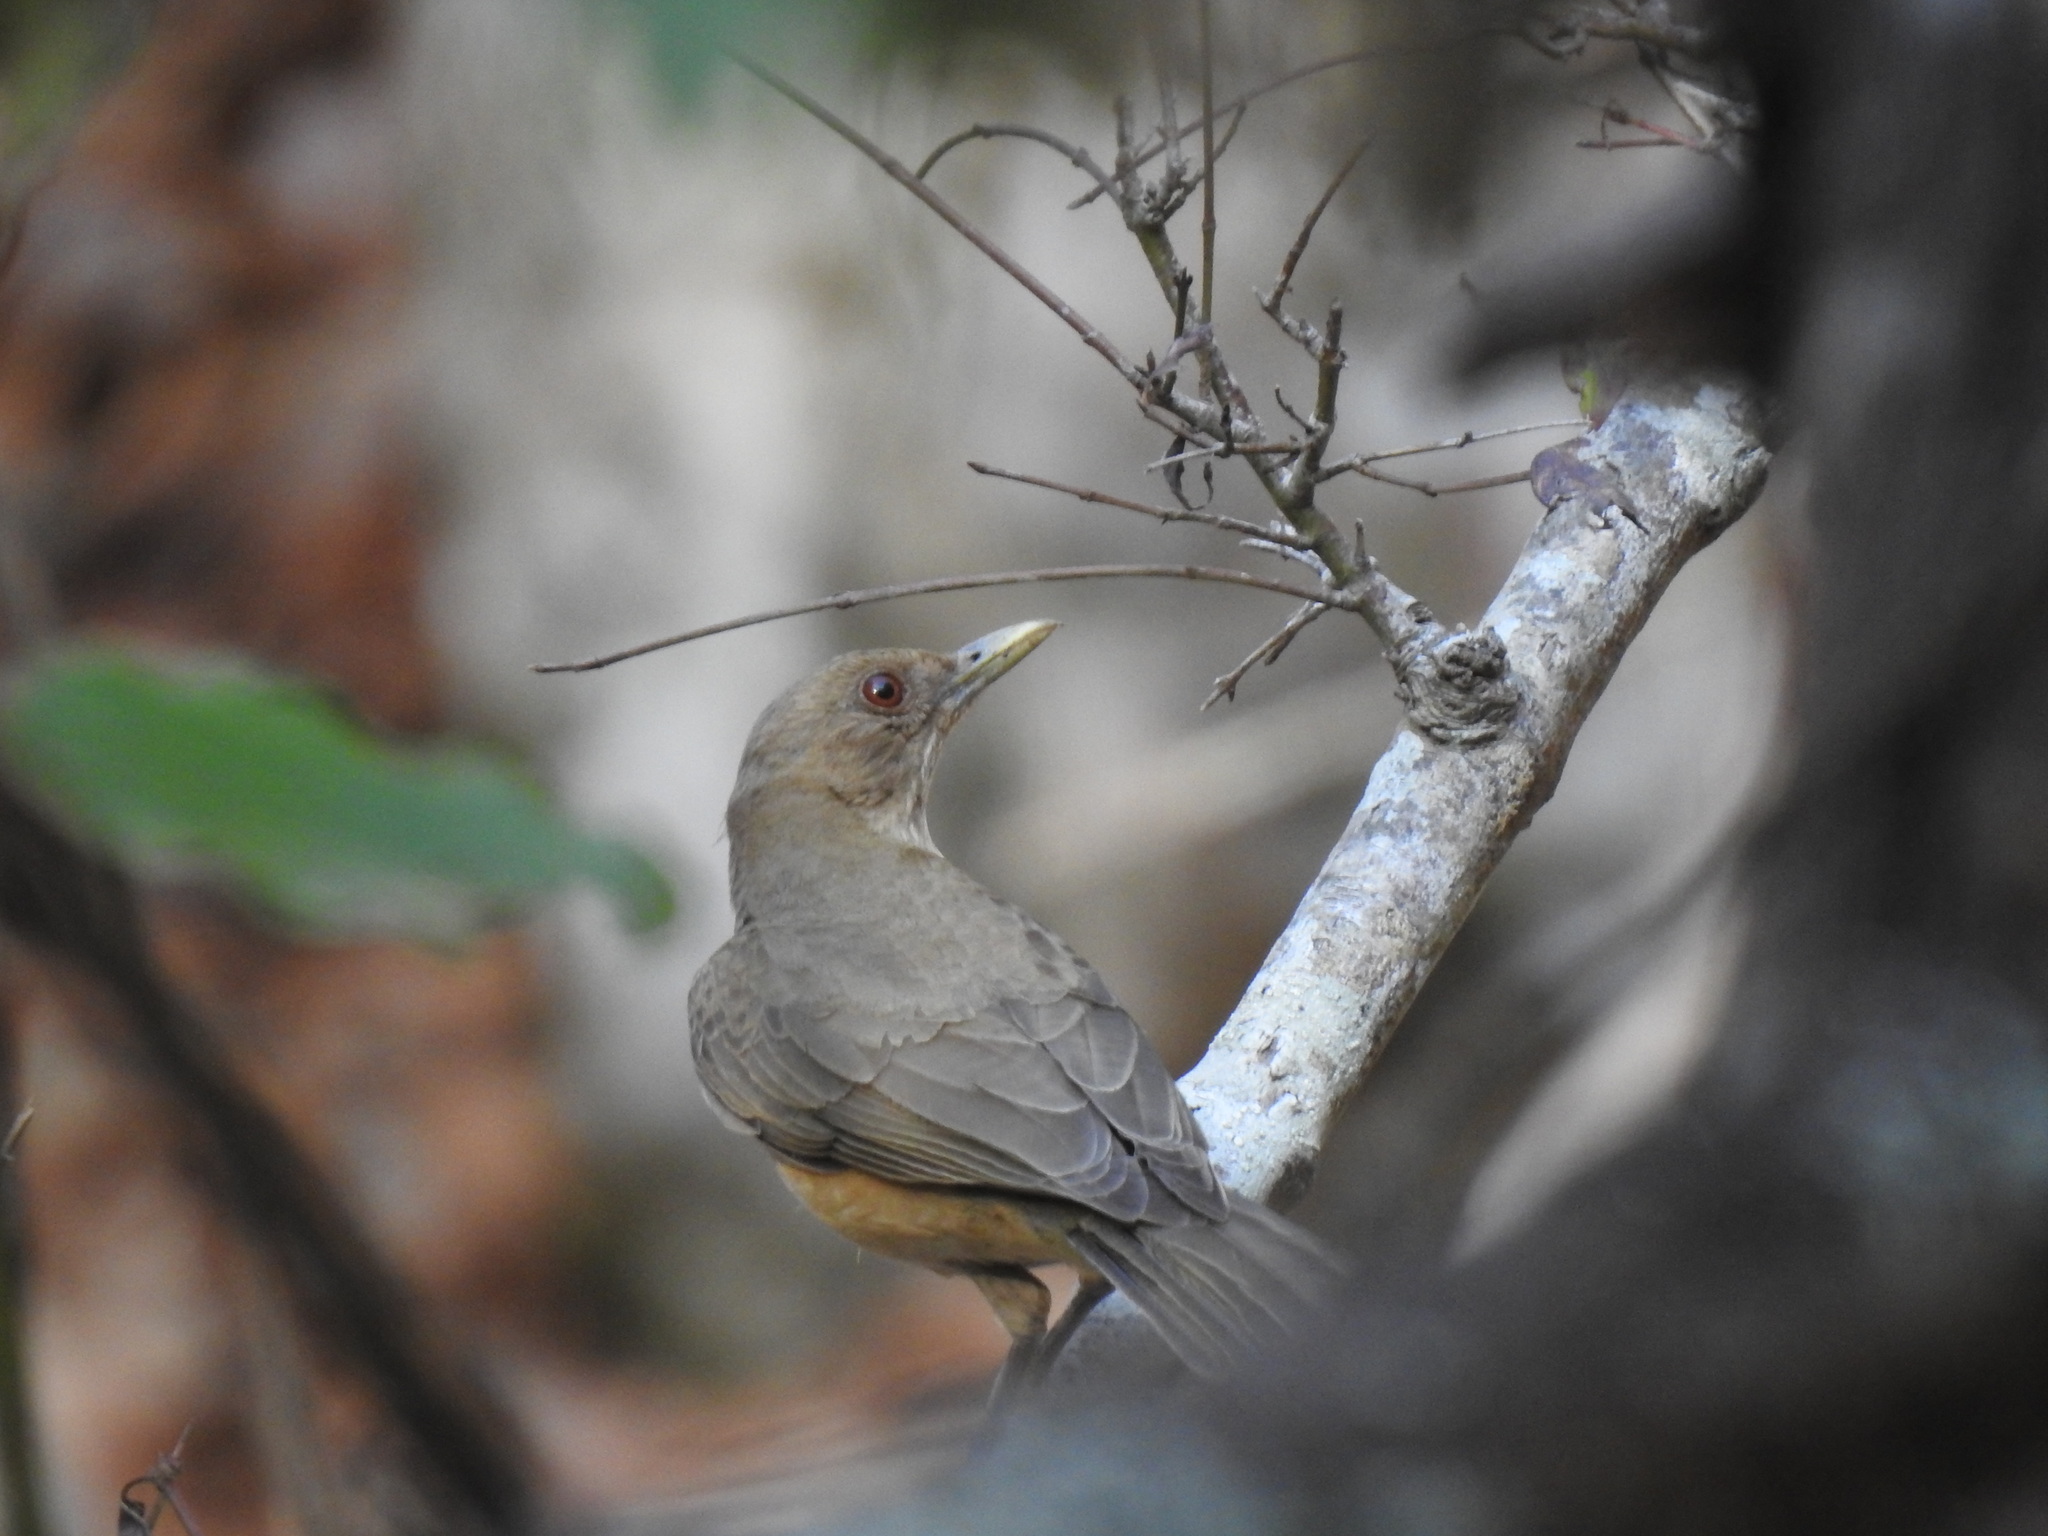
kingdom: Animalia
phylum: Chordata
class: Aves
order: Passeriformes
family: Turdidae
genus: Turdus
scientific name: Turdus grayi
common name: Clay-colored thrush
